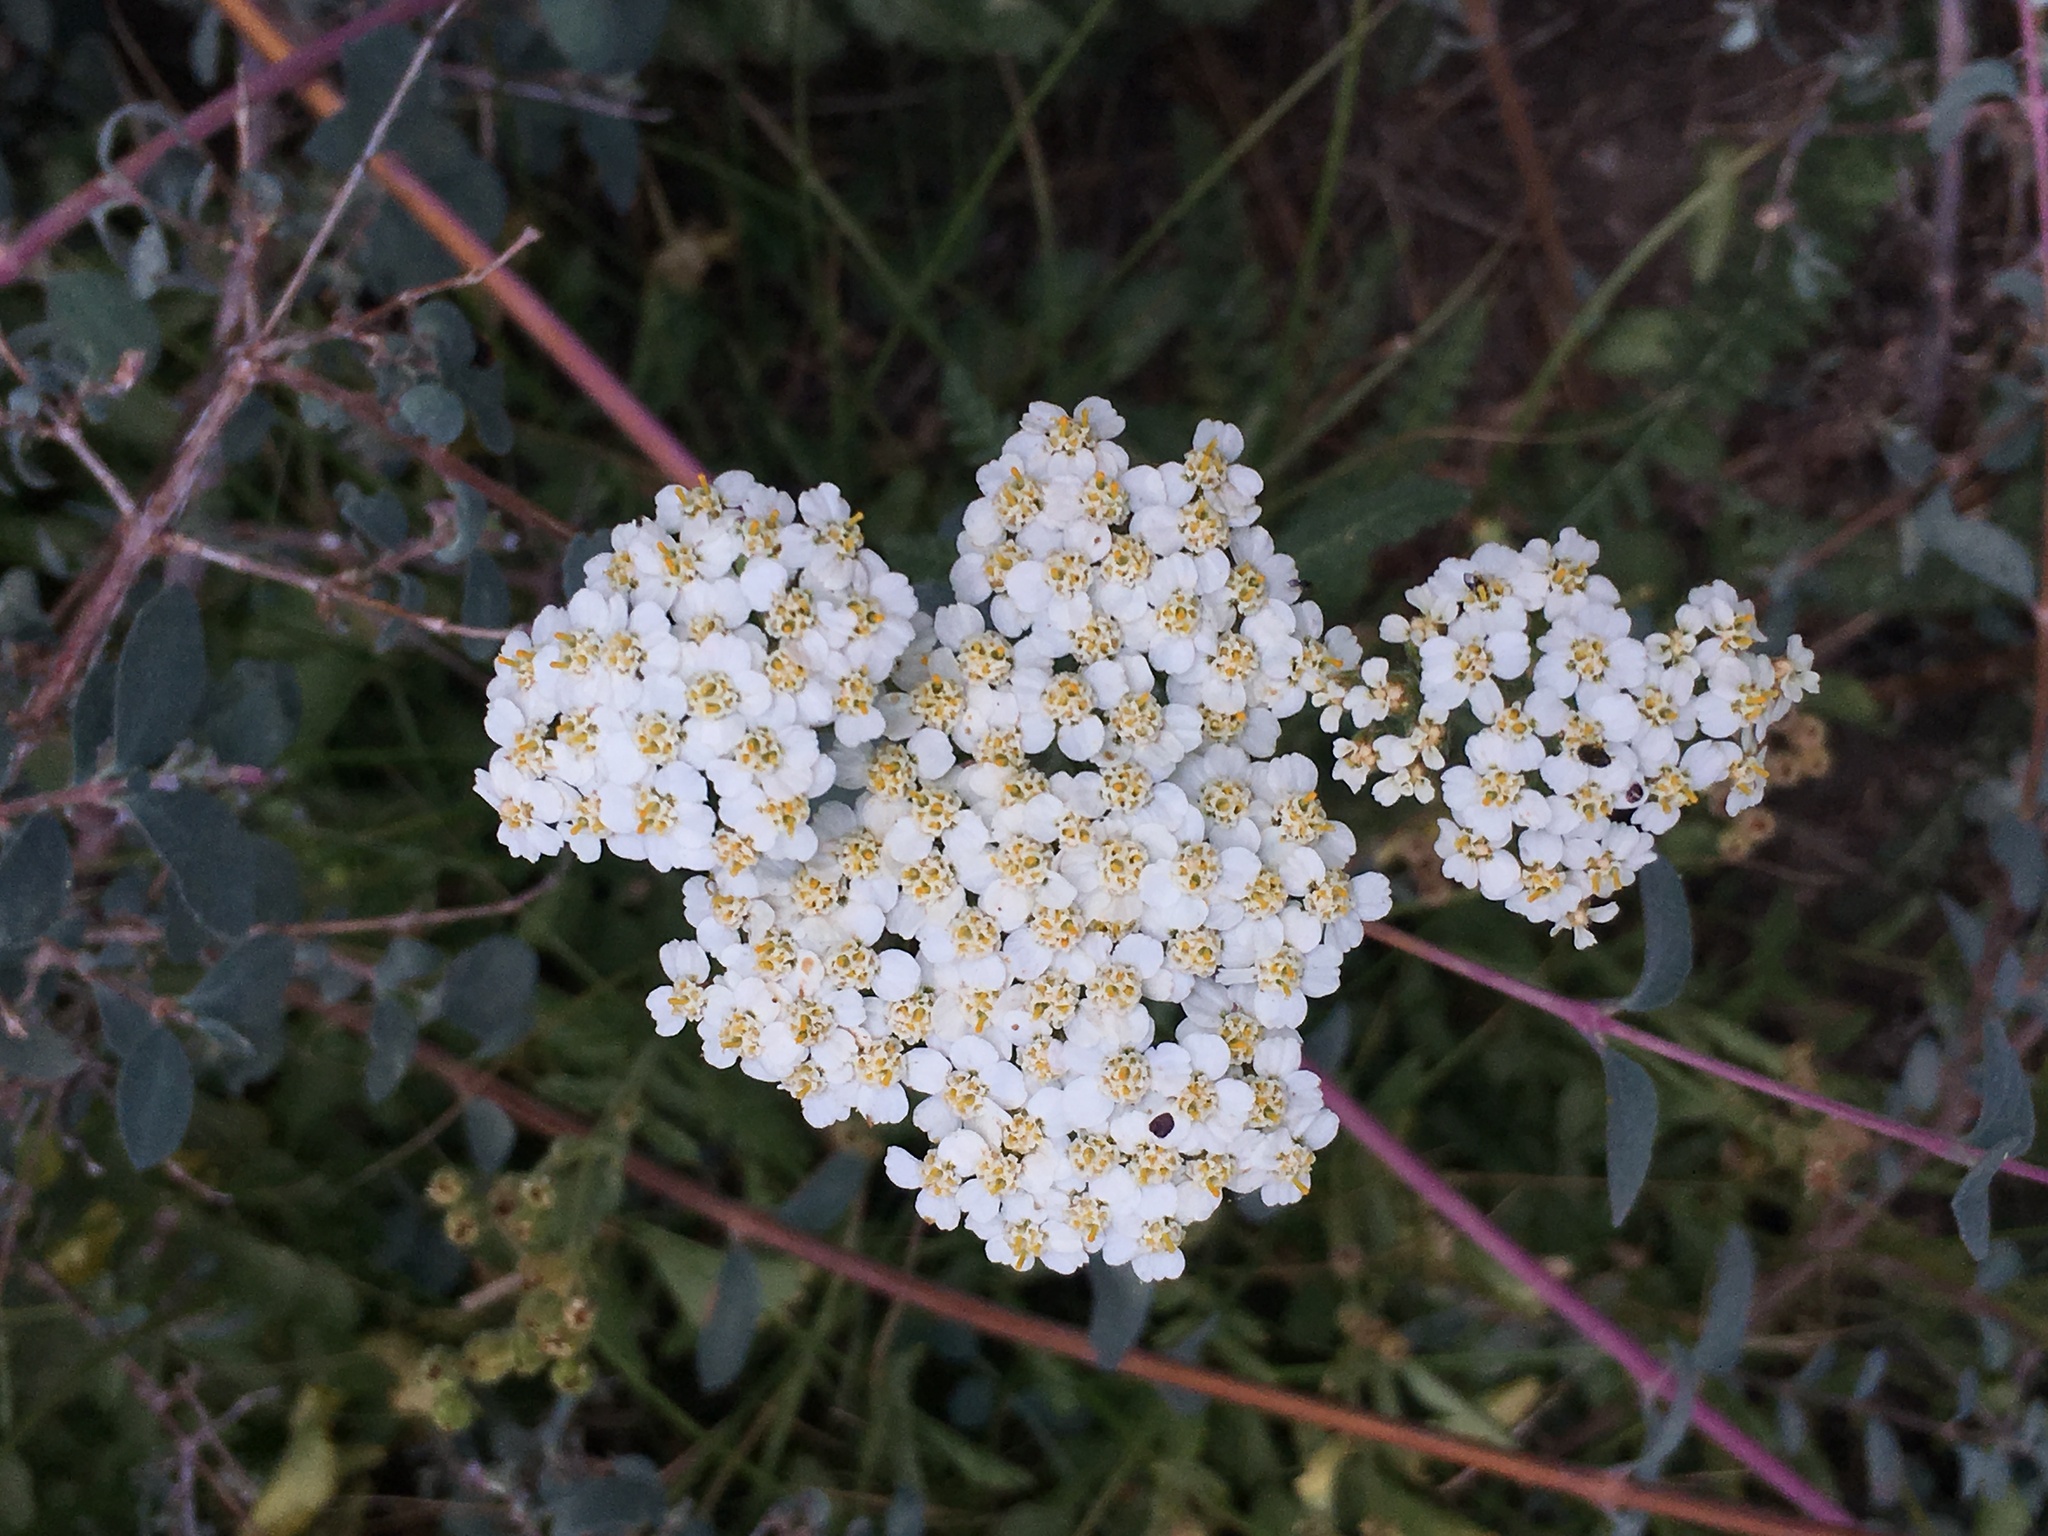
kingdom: Plantae
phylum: Tracheophyta
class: Magnoliopsida
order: Asterales
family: Asteraceae
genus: Achillea
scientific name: Achillea millefolium
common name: Yarrow
